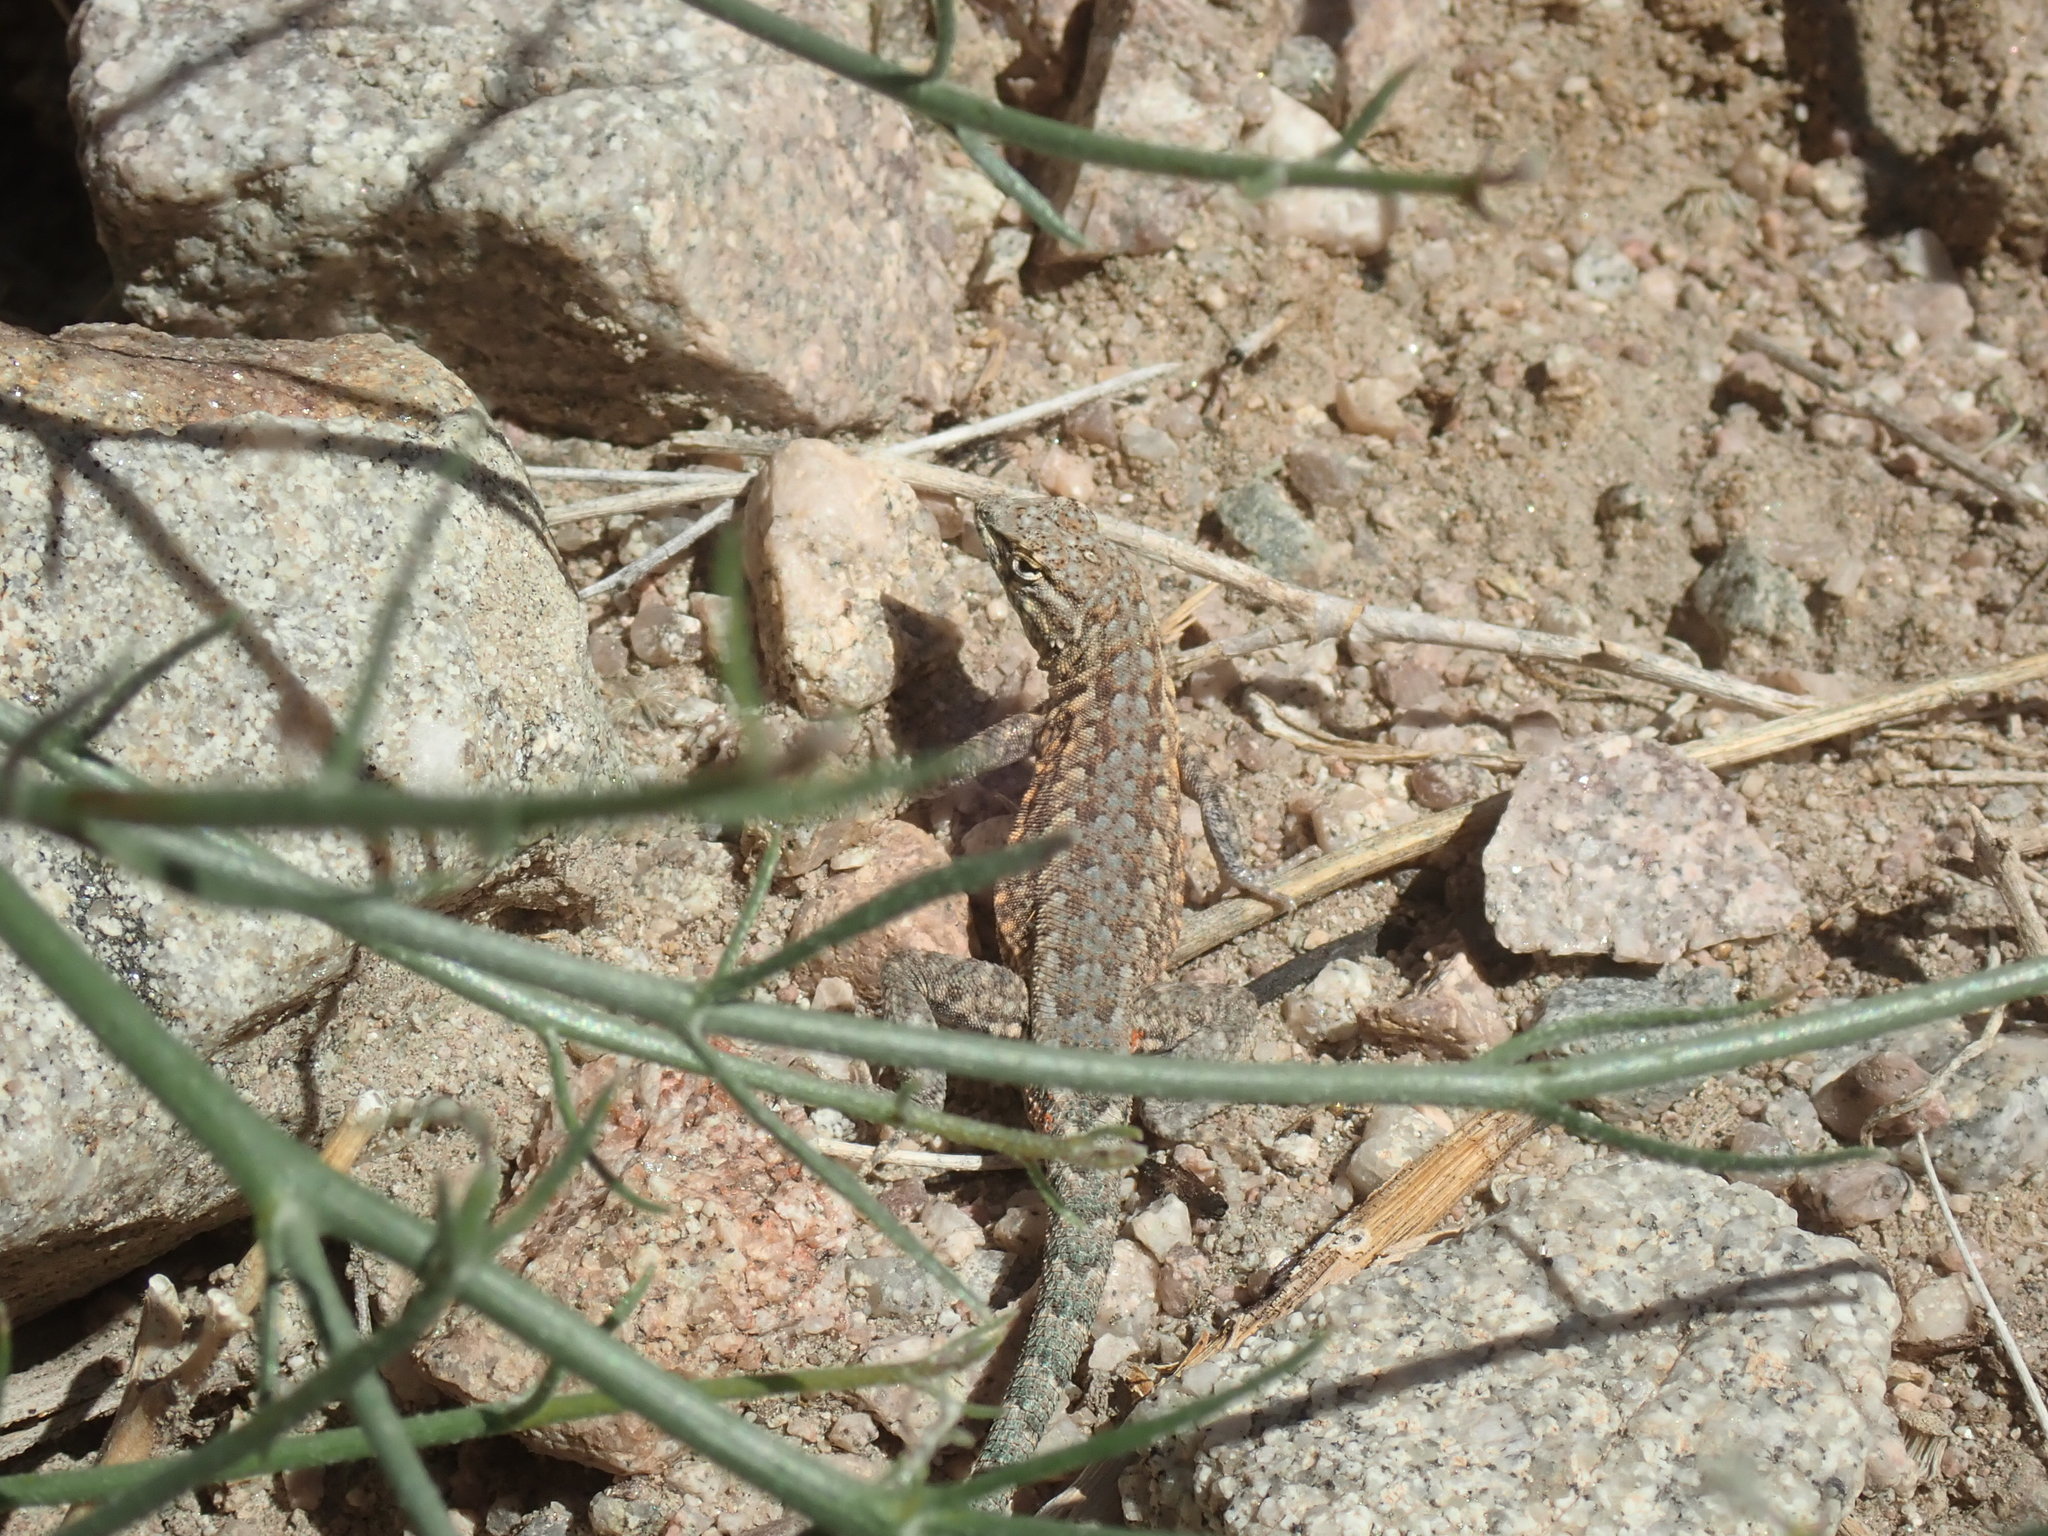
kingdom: Animalia
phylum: Chordata
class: Squamata
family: Phrynosomatidae
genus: Uta
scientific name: Uta stansburiana
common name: Side-blotched lizard
